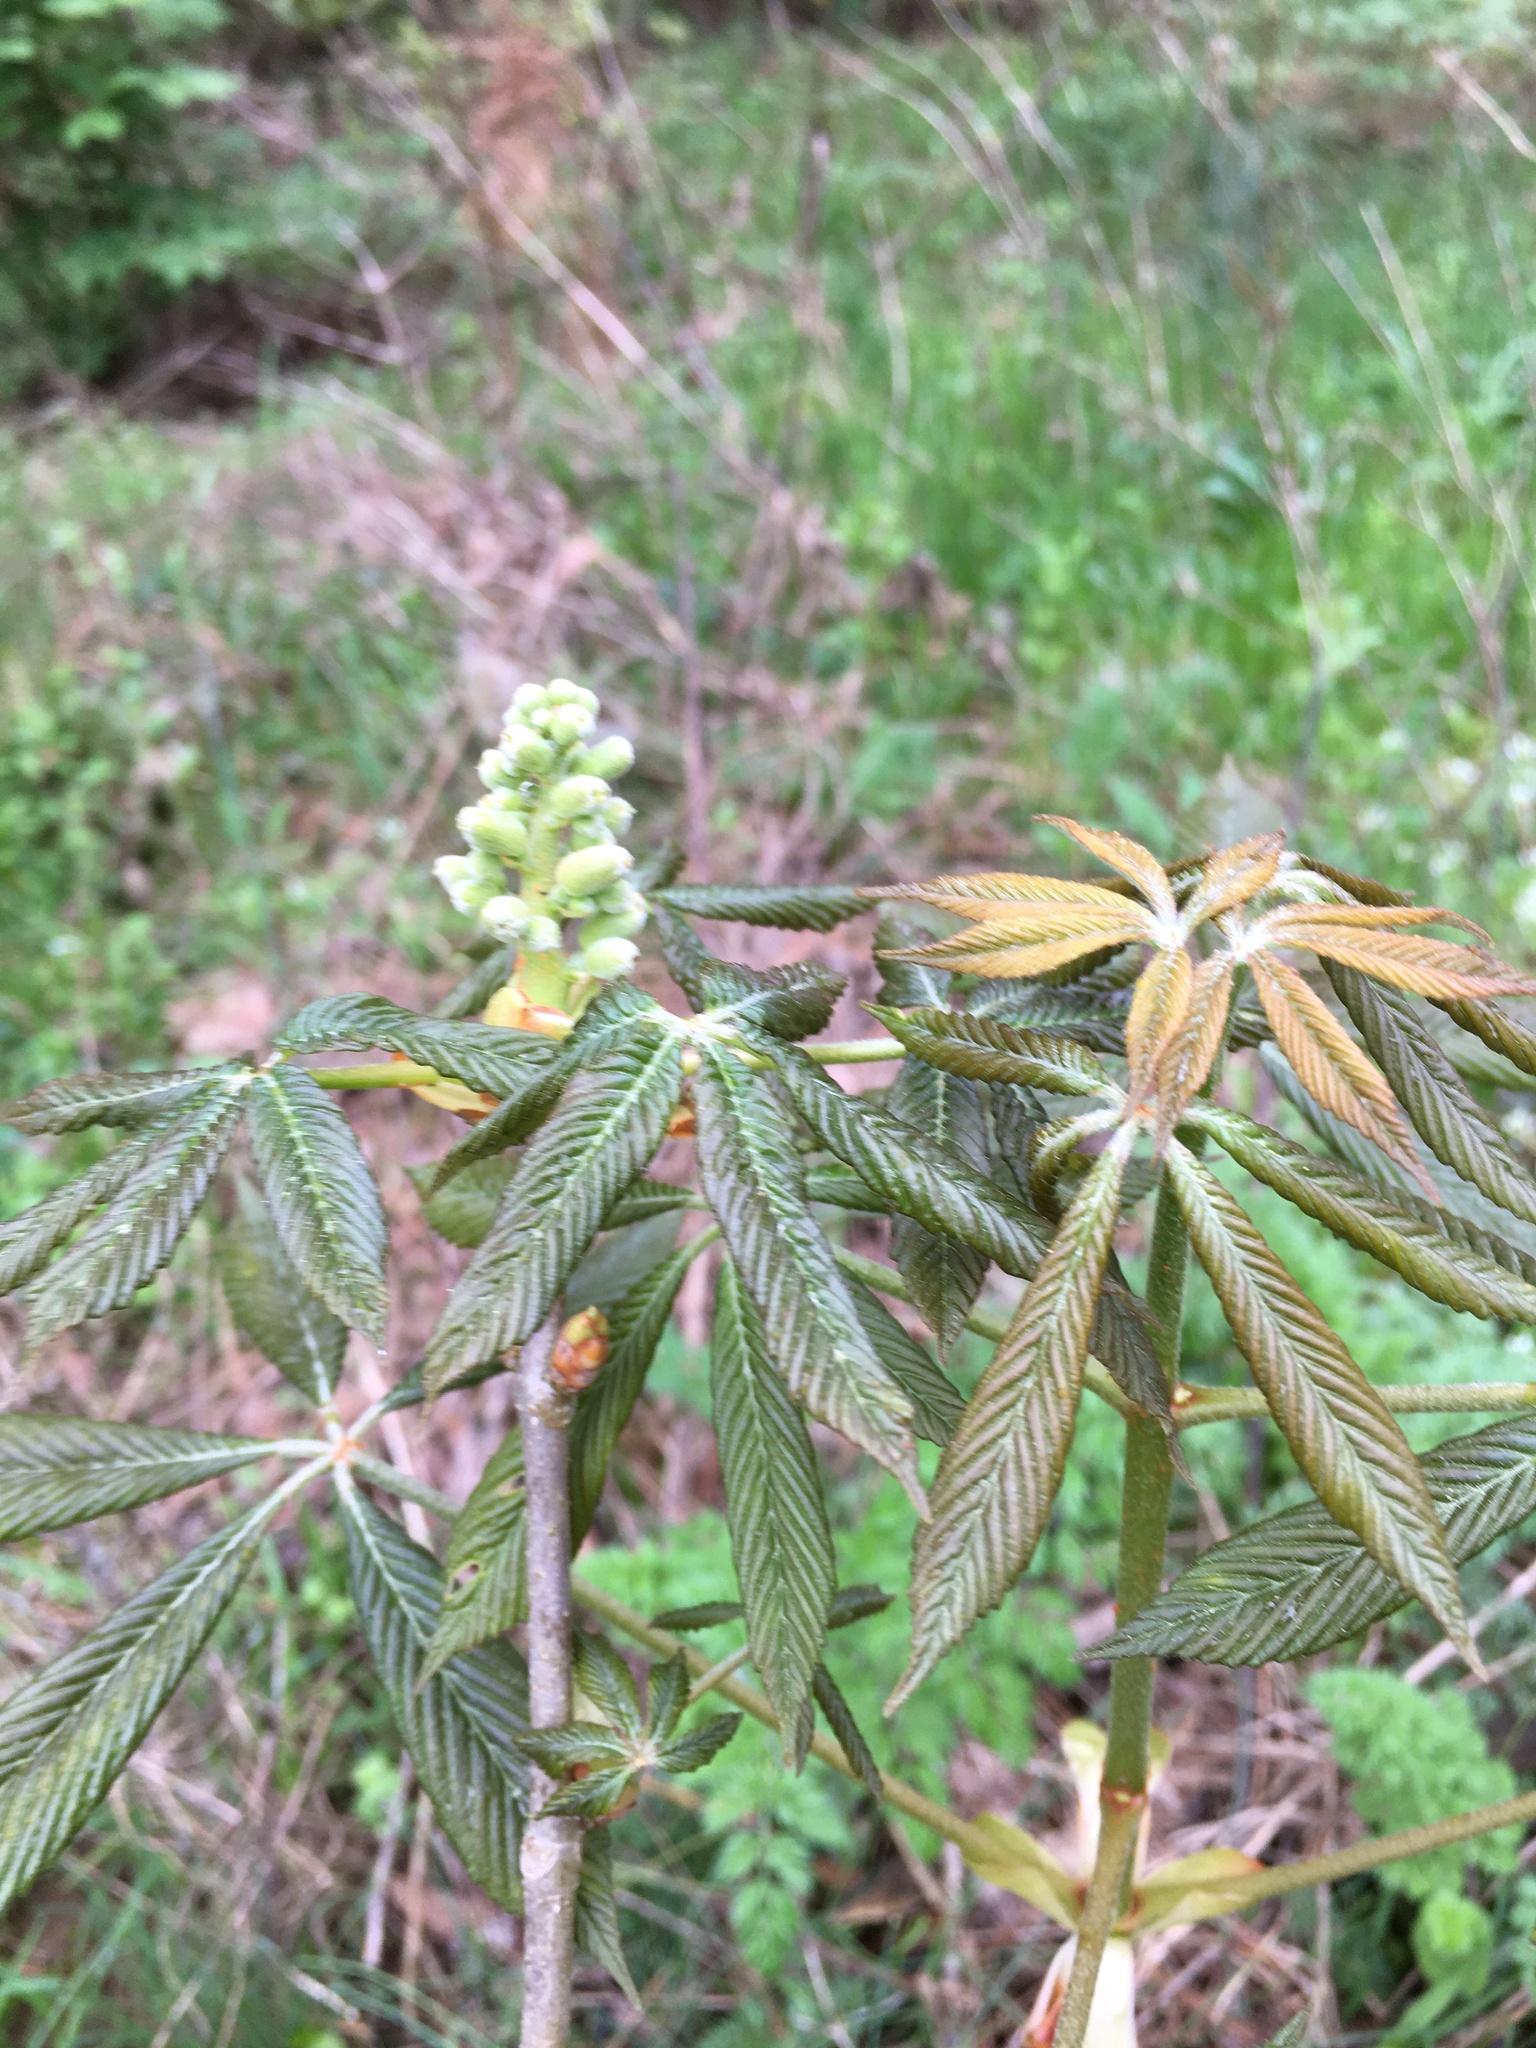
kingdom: Plantae
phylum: Tracheophyta
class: Magnoliopsida
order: Sapindales
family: Sapindaceae
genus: Aesculus
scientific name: Aesculus sylvatica
